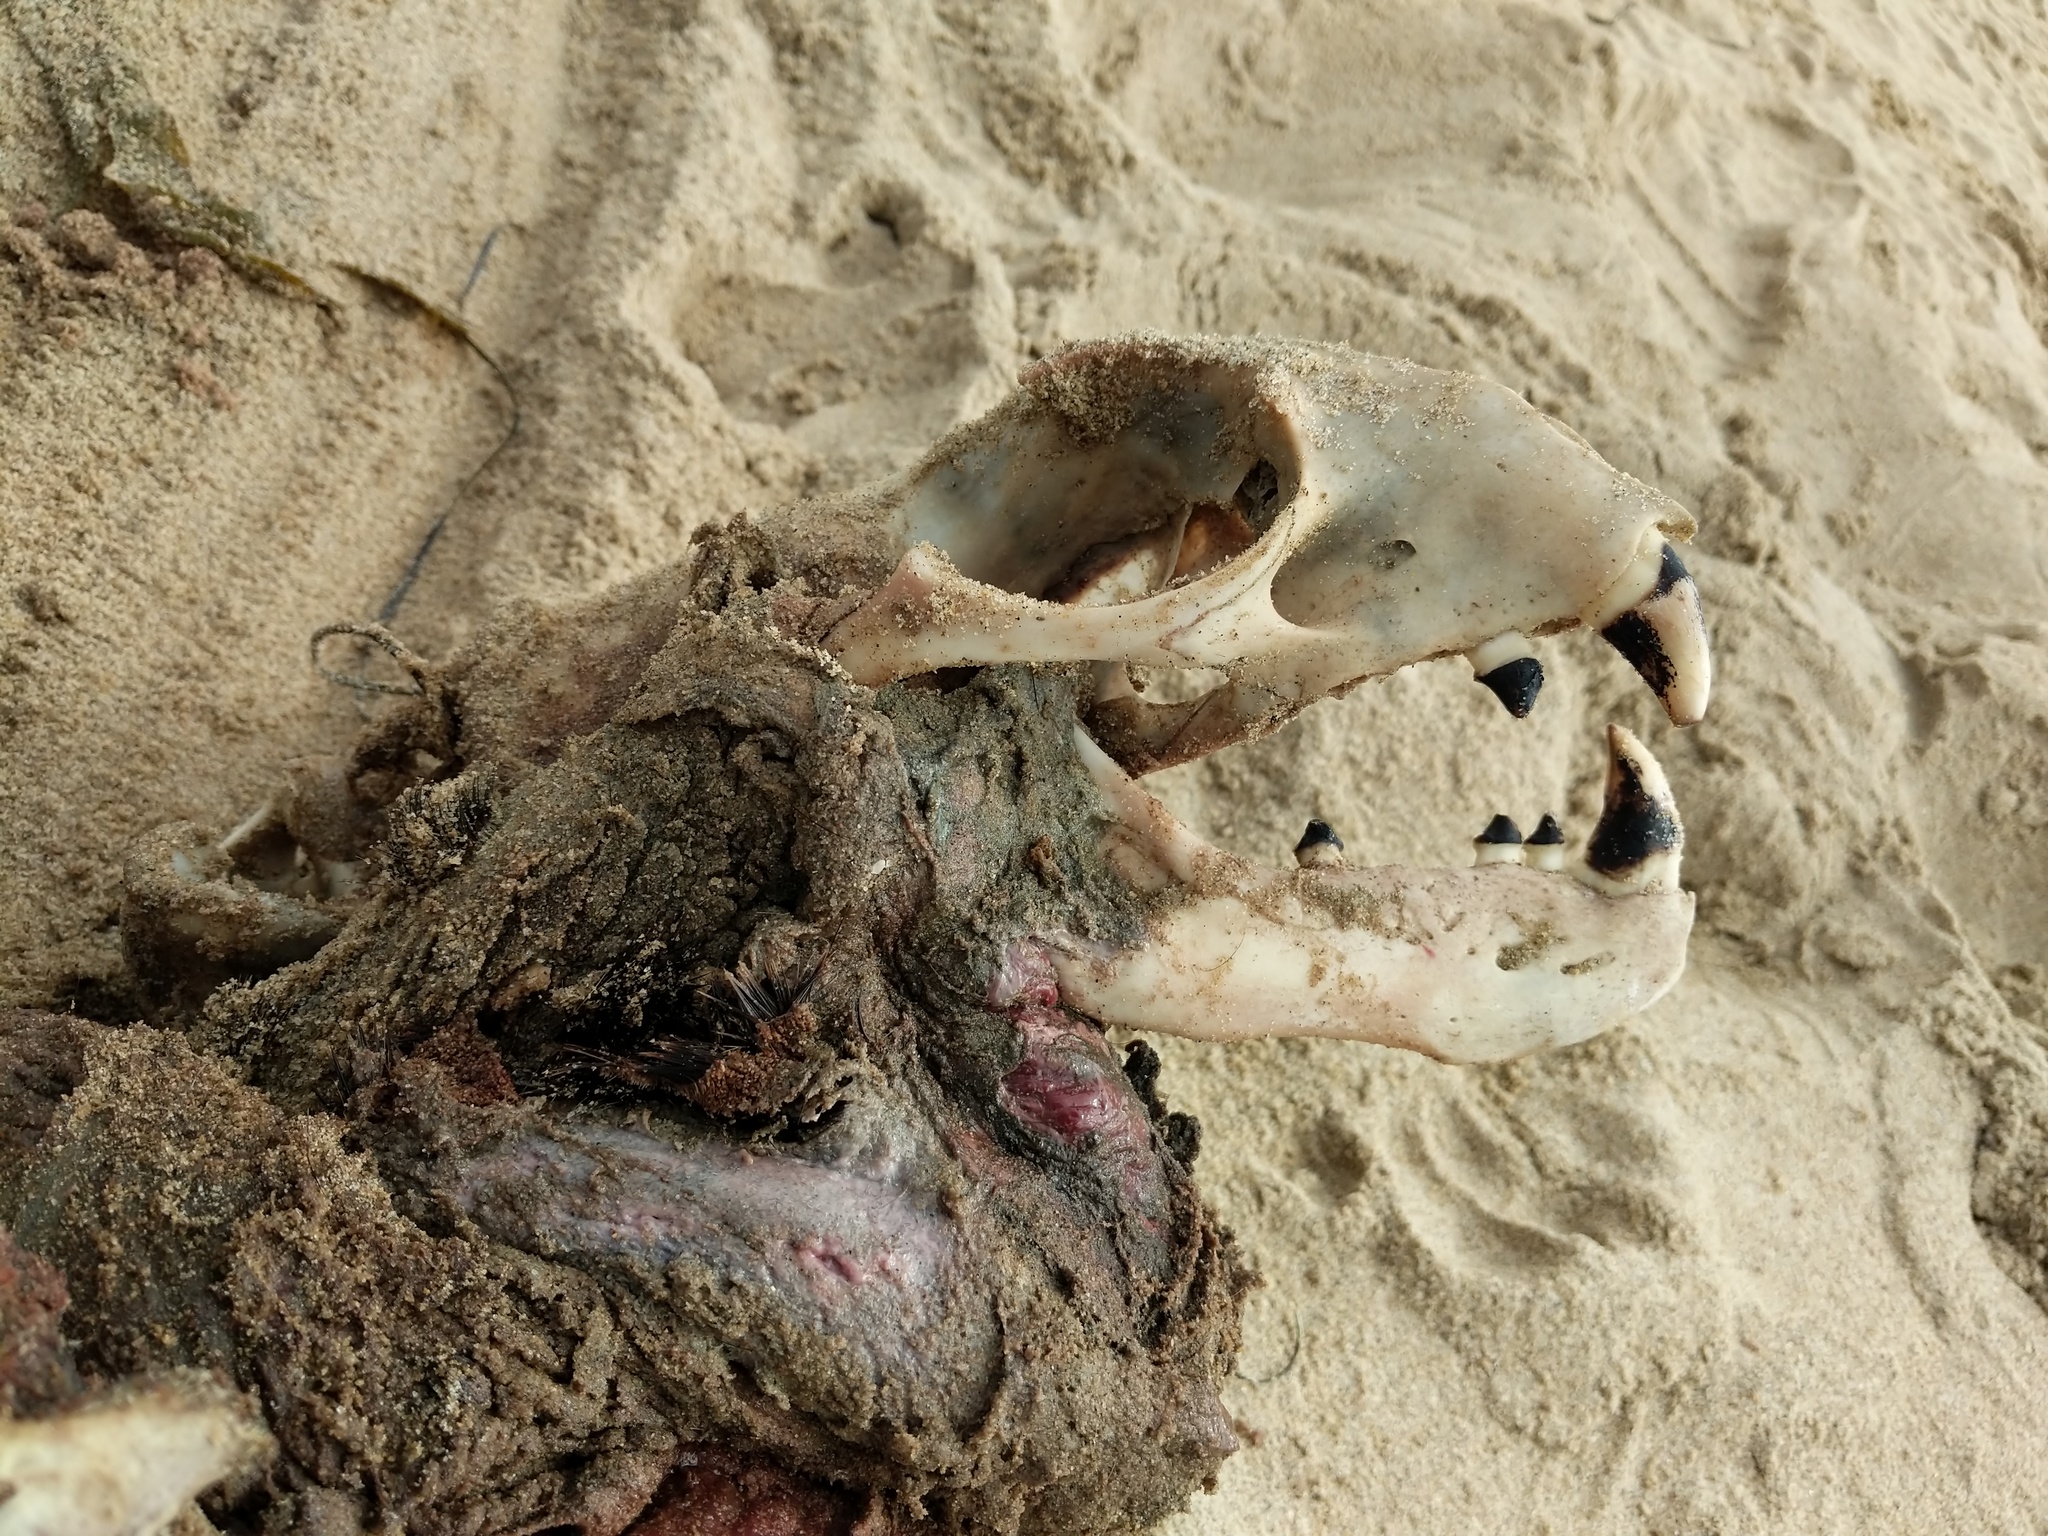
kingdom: Animalia
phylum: Chordata
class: Mammalia
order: Carnivora
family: Otariidae
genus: Zalophus
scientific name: Zalophus californianus
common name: California sea lion
